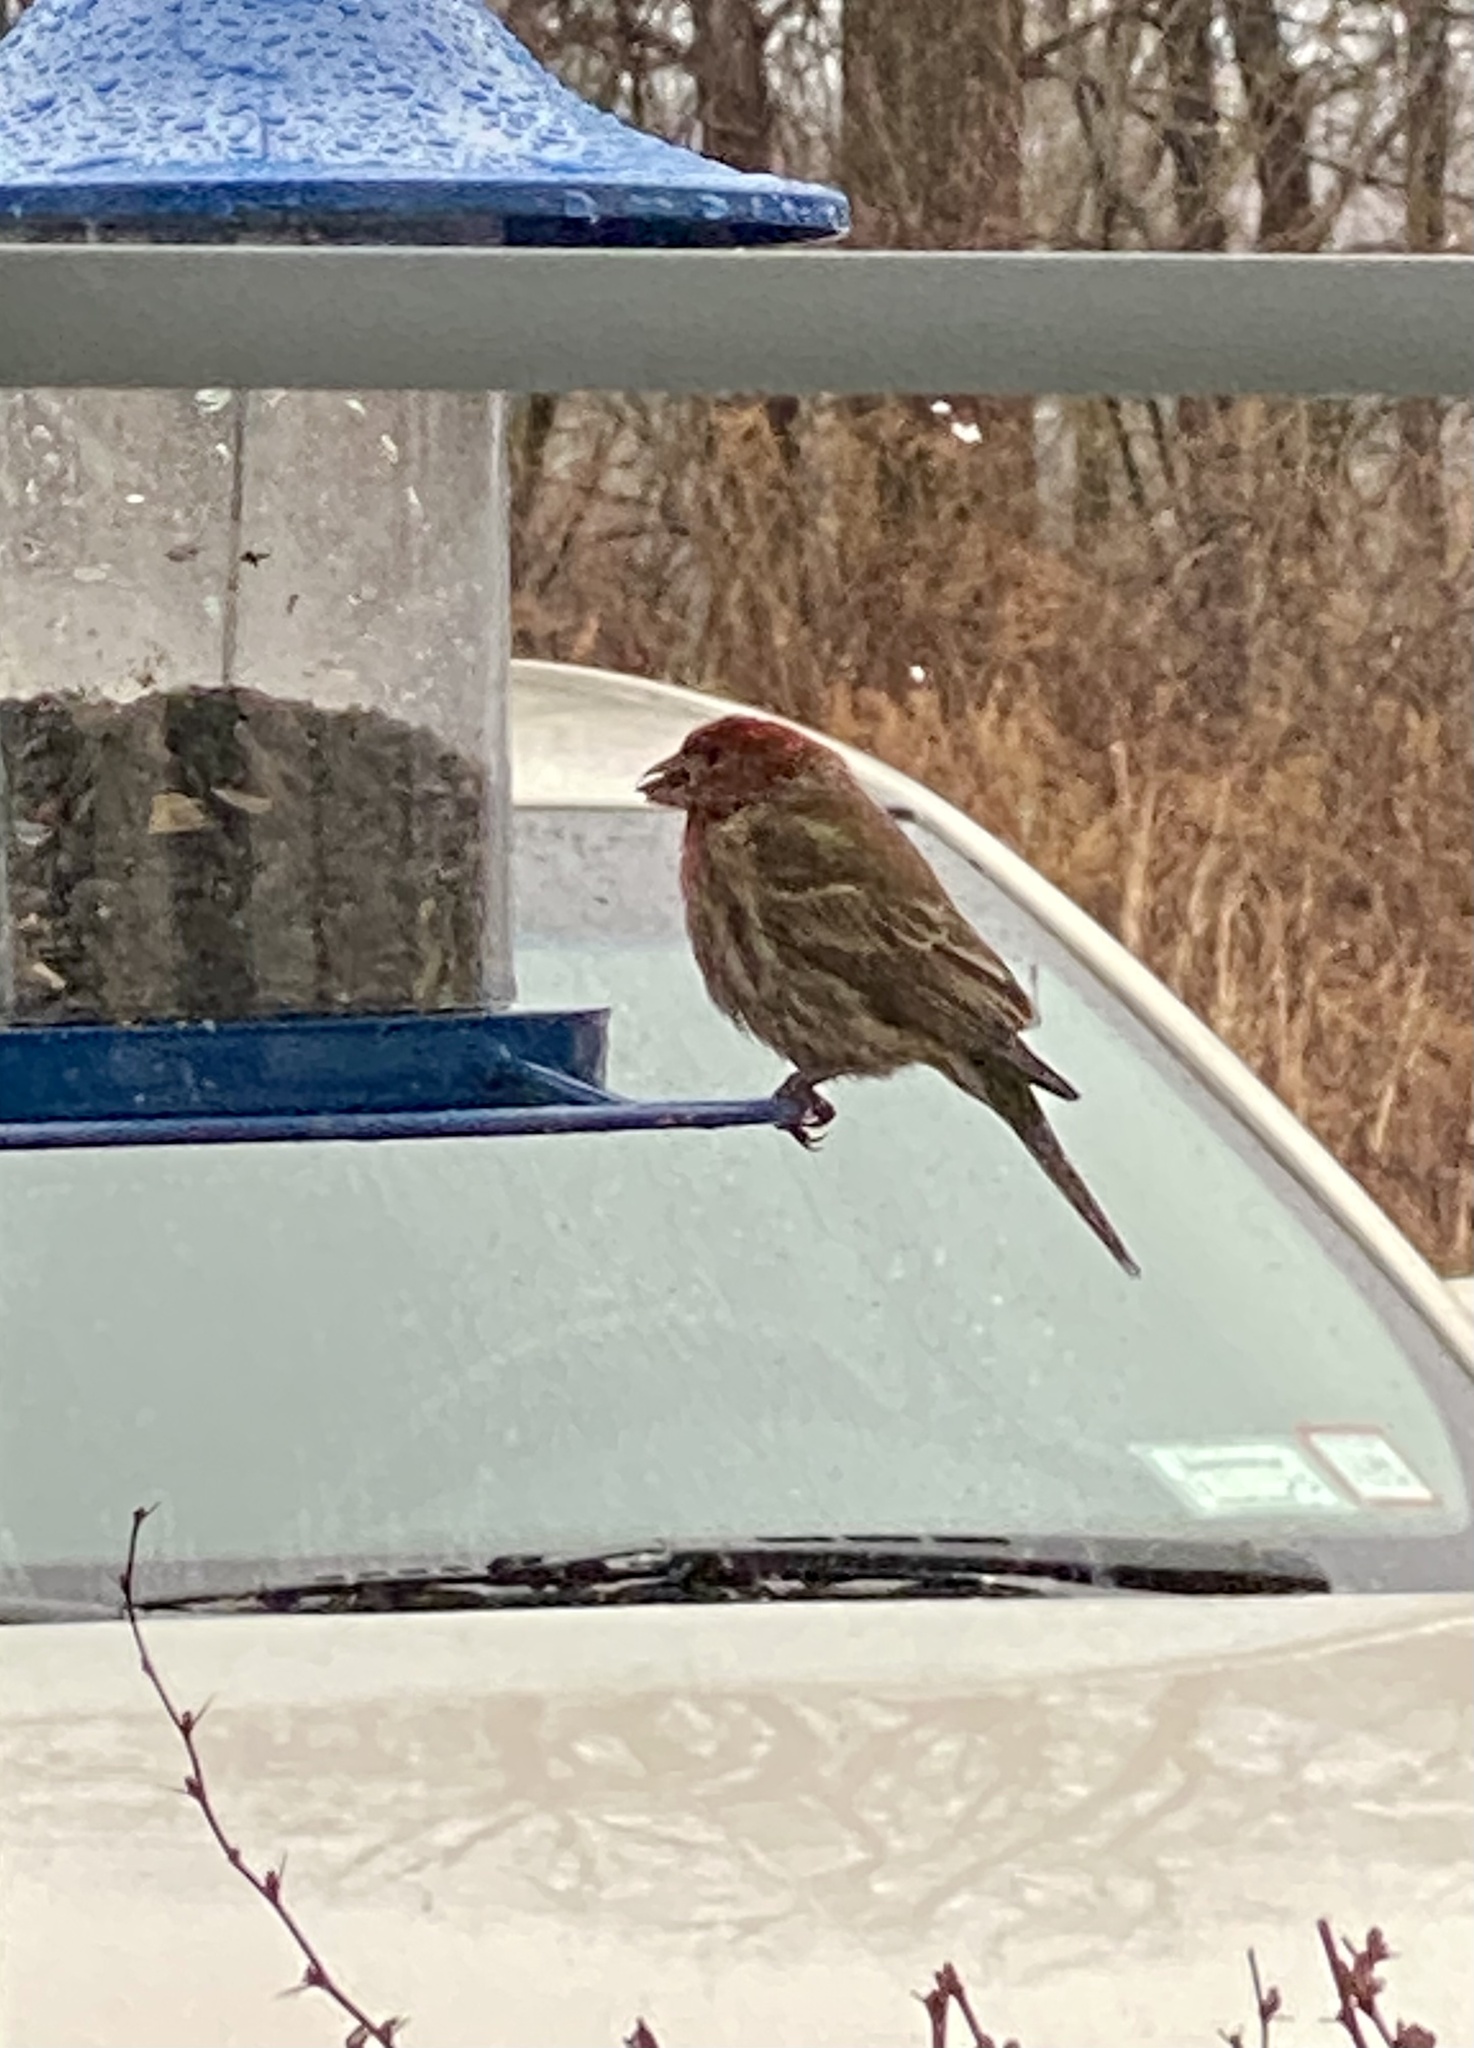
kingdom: Animalia
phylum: Chordata
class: Aves
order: Passeriformes
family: Fringillidae
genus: Haemorhous
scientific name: Haemorhous mexicanus
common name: House finch
